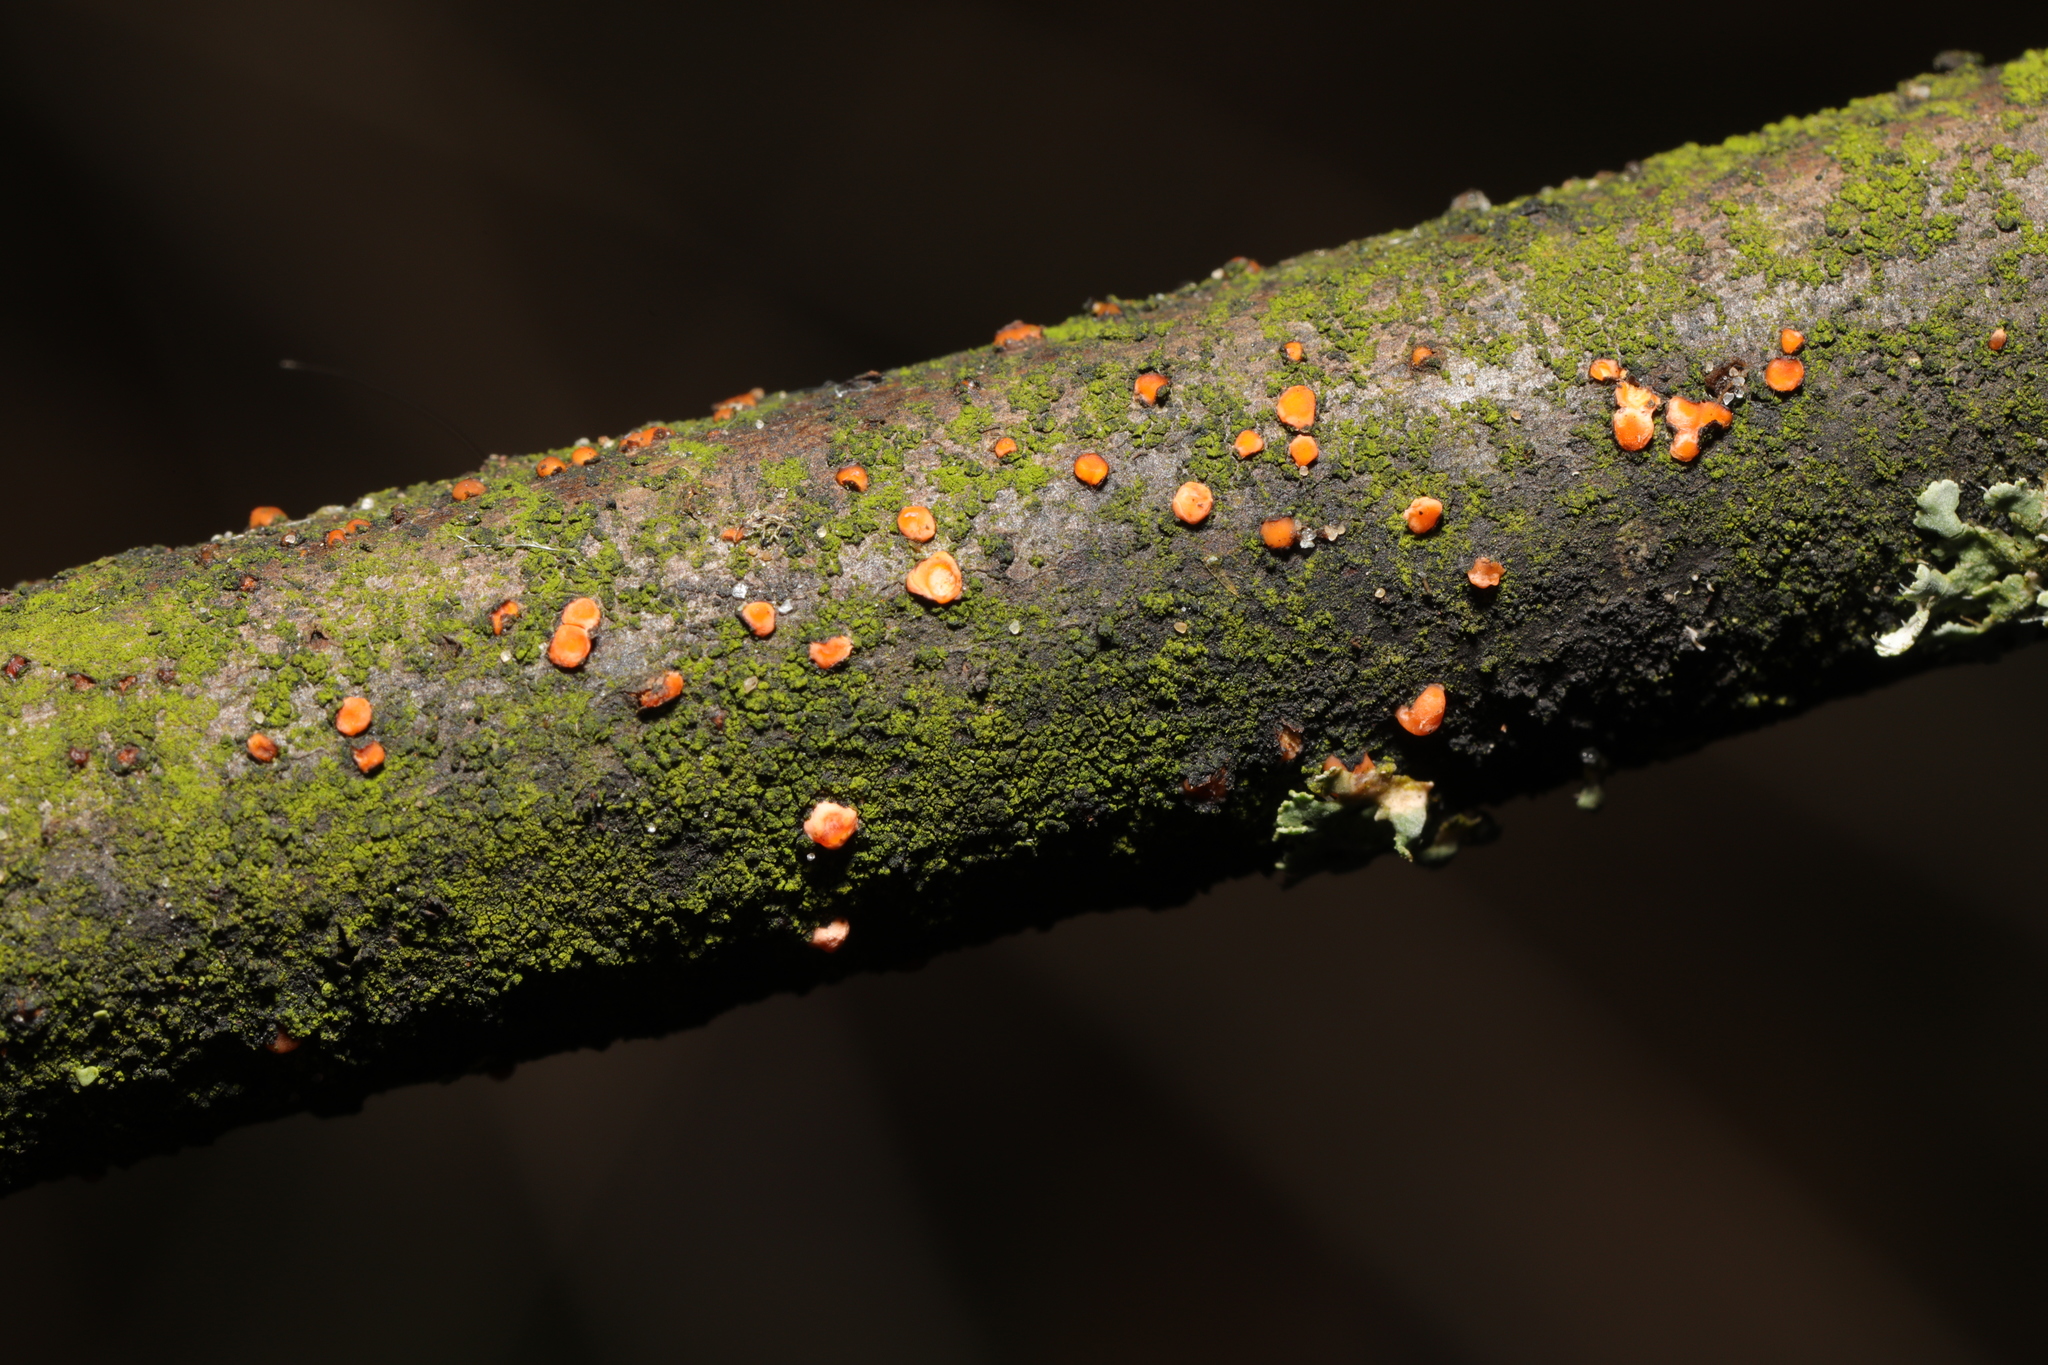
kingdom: Fungi
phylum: Ascomycota
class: Sordariomycetes
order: Hypocreales
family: Nectriaceae
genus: Nectria
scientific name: Nectria cinnabarina
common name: Coral spot
